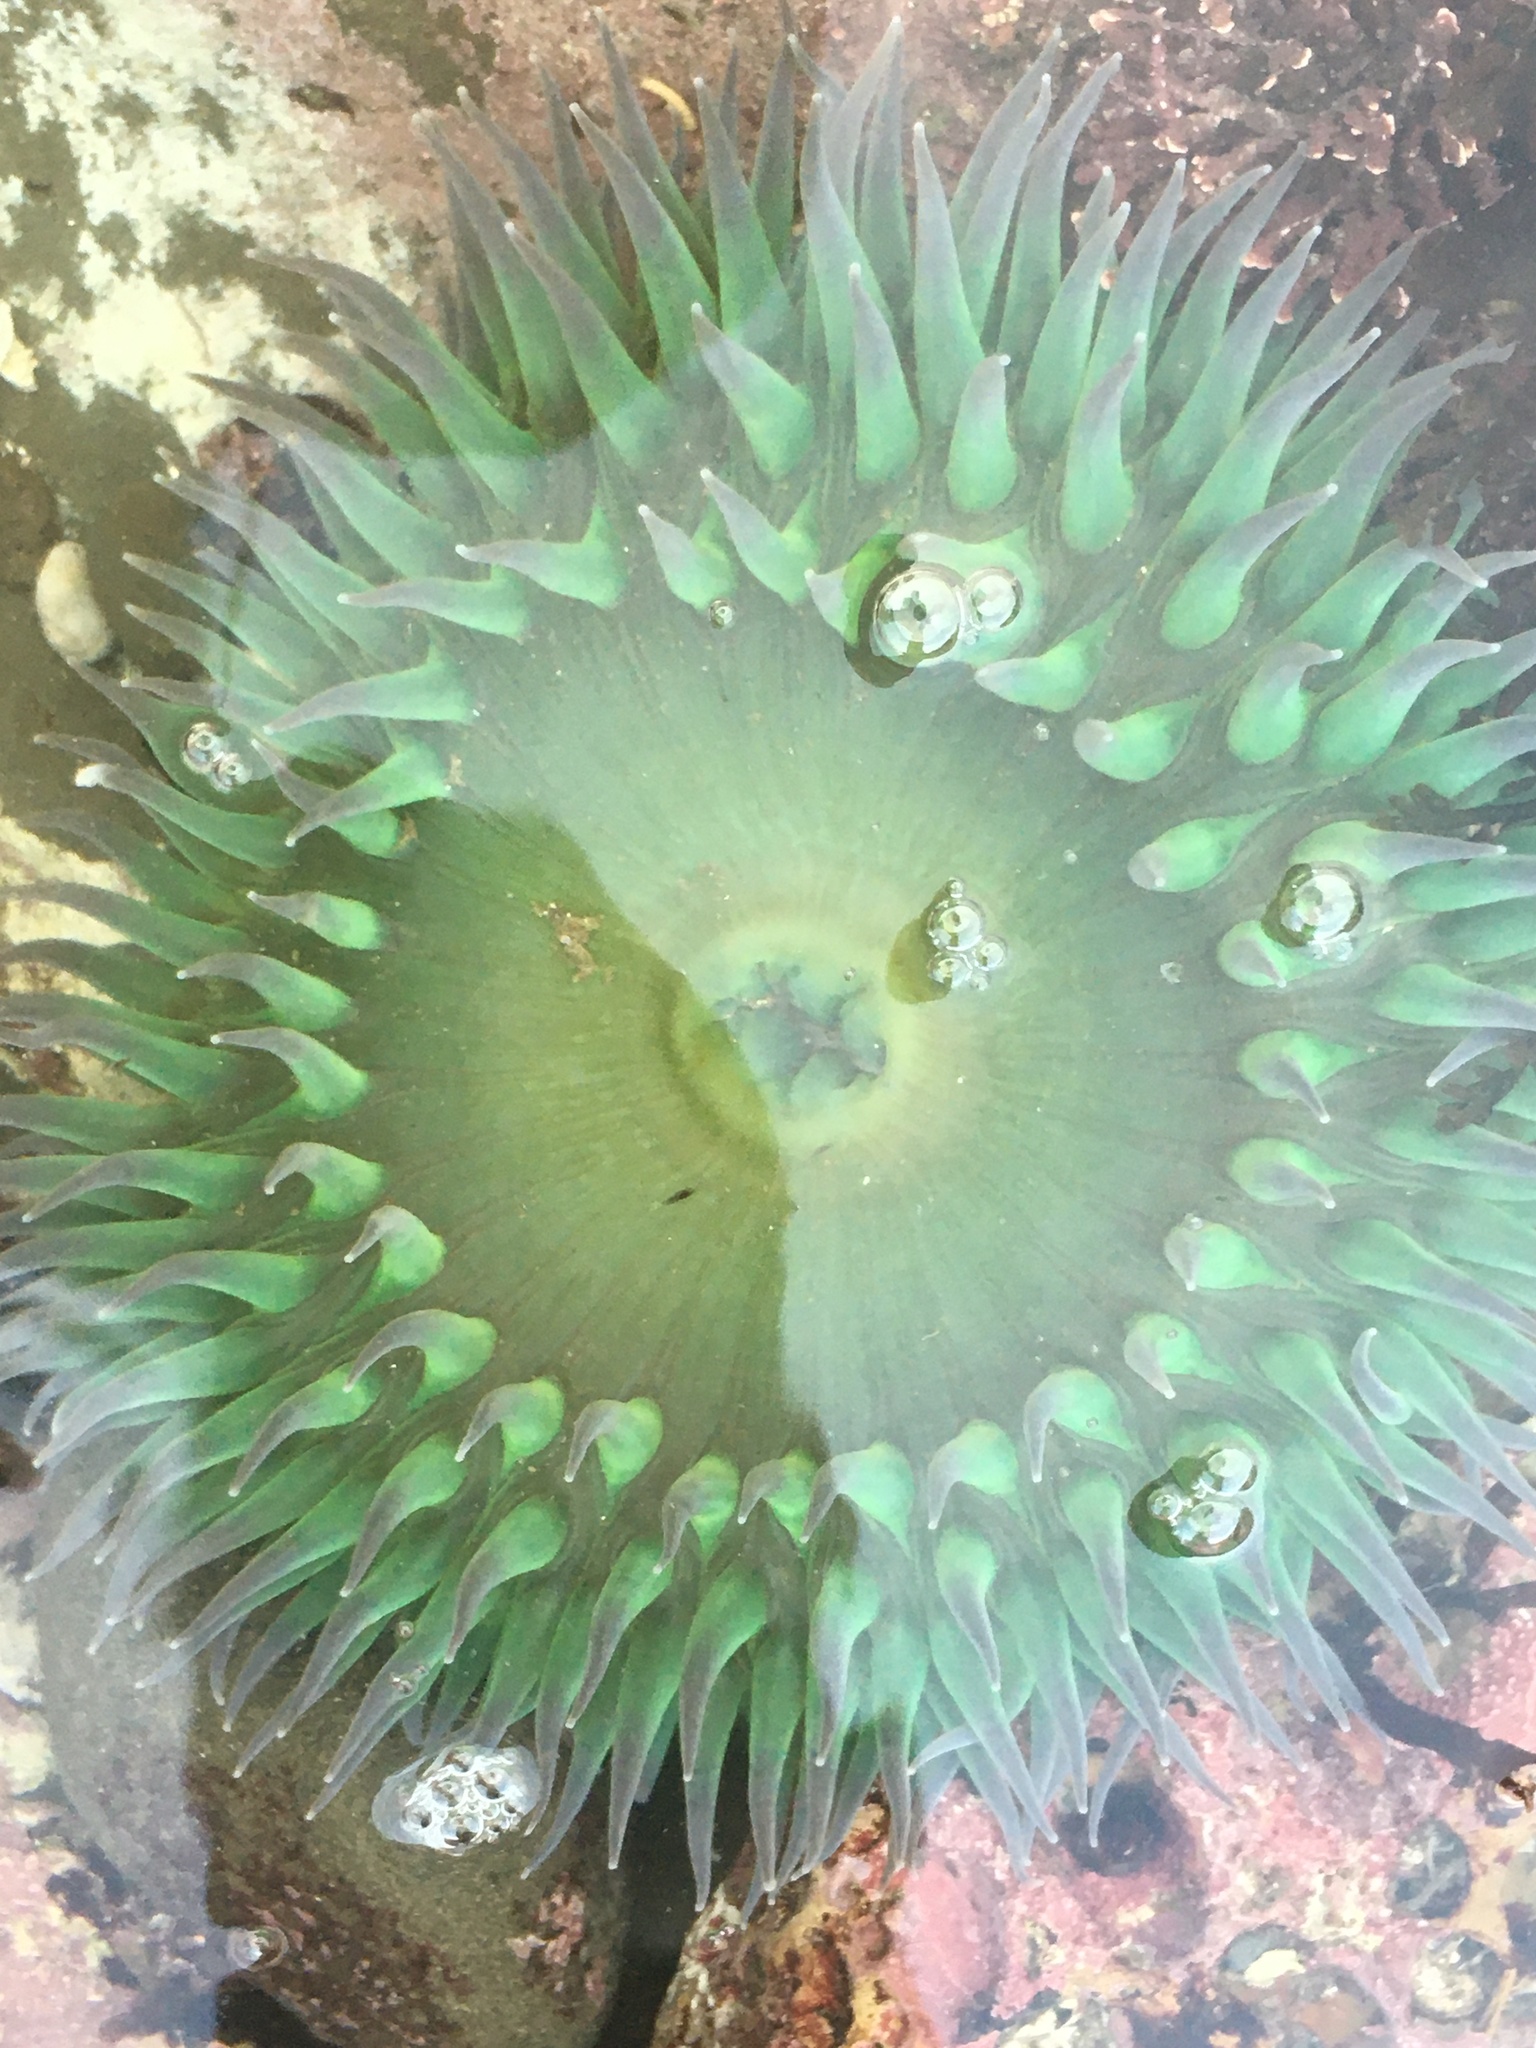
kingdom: Animalia
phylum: Cnidaria
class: Anthozoa
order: Actiniaria
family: Actiniidae
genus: Anthopleura
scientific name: Anthopleura xanthogrammica
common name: Giant green anemone
